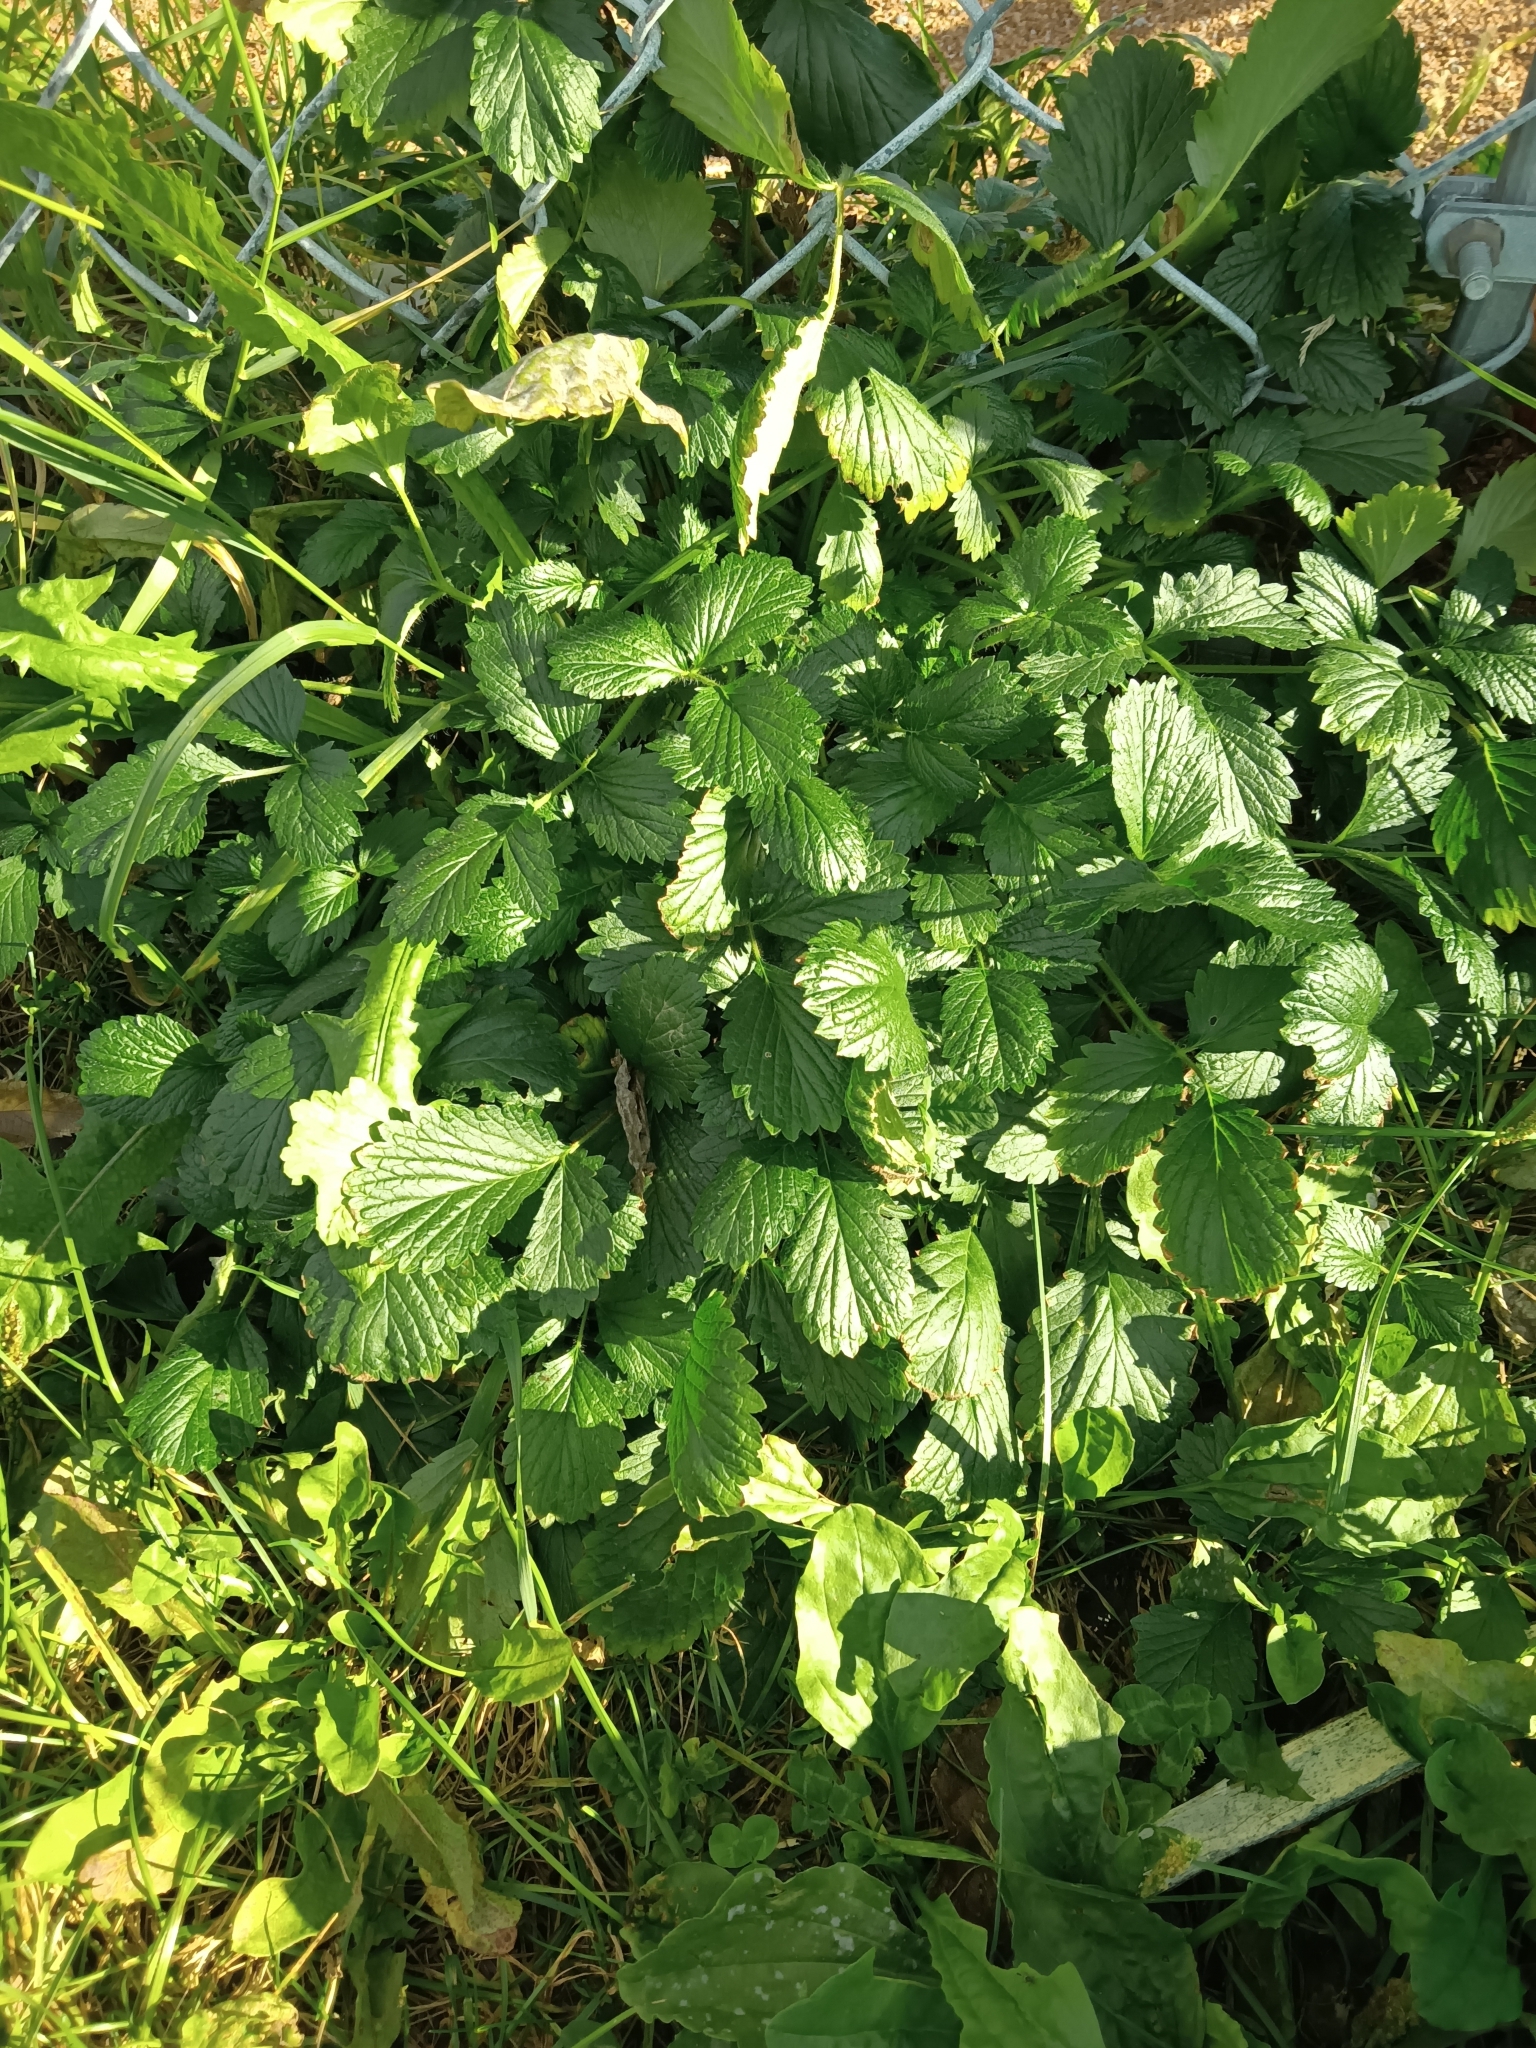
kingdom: Plantae
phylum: Tracheophyta
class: Magnoliopsida
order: Rosales
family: Rosaceae
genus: Potentilla
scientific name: Potentilla norvegica
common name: Ternate-leaved cinquefoil
